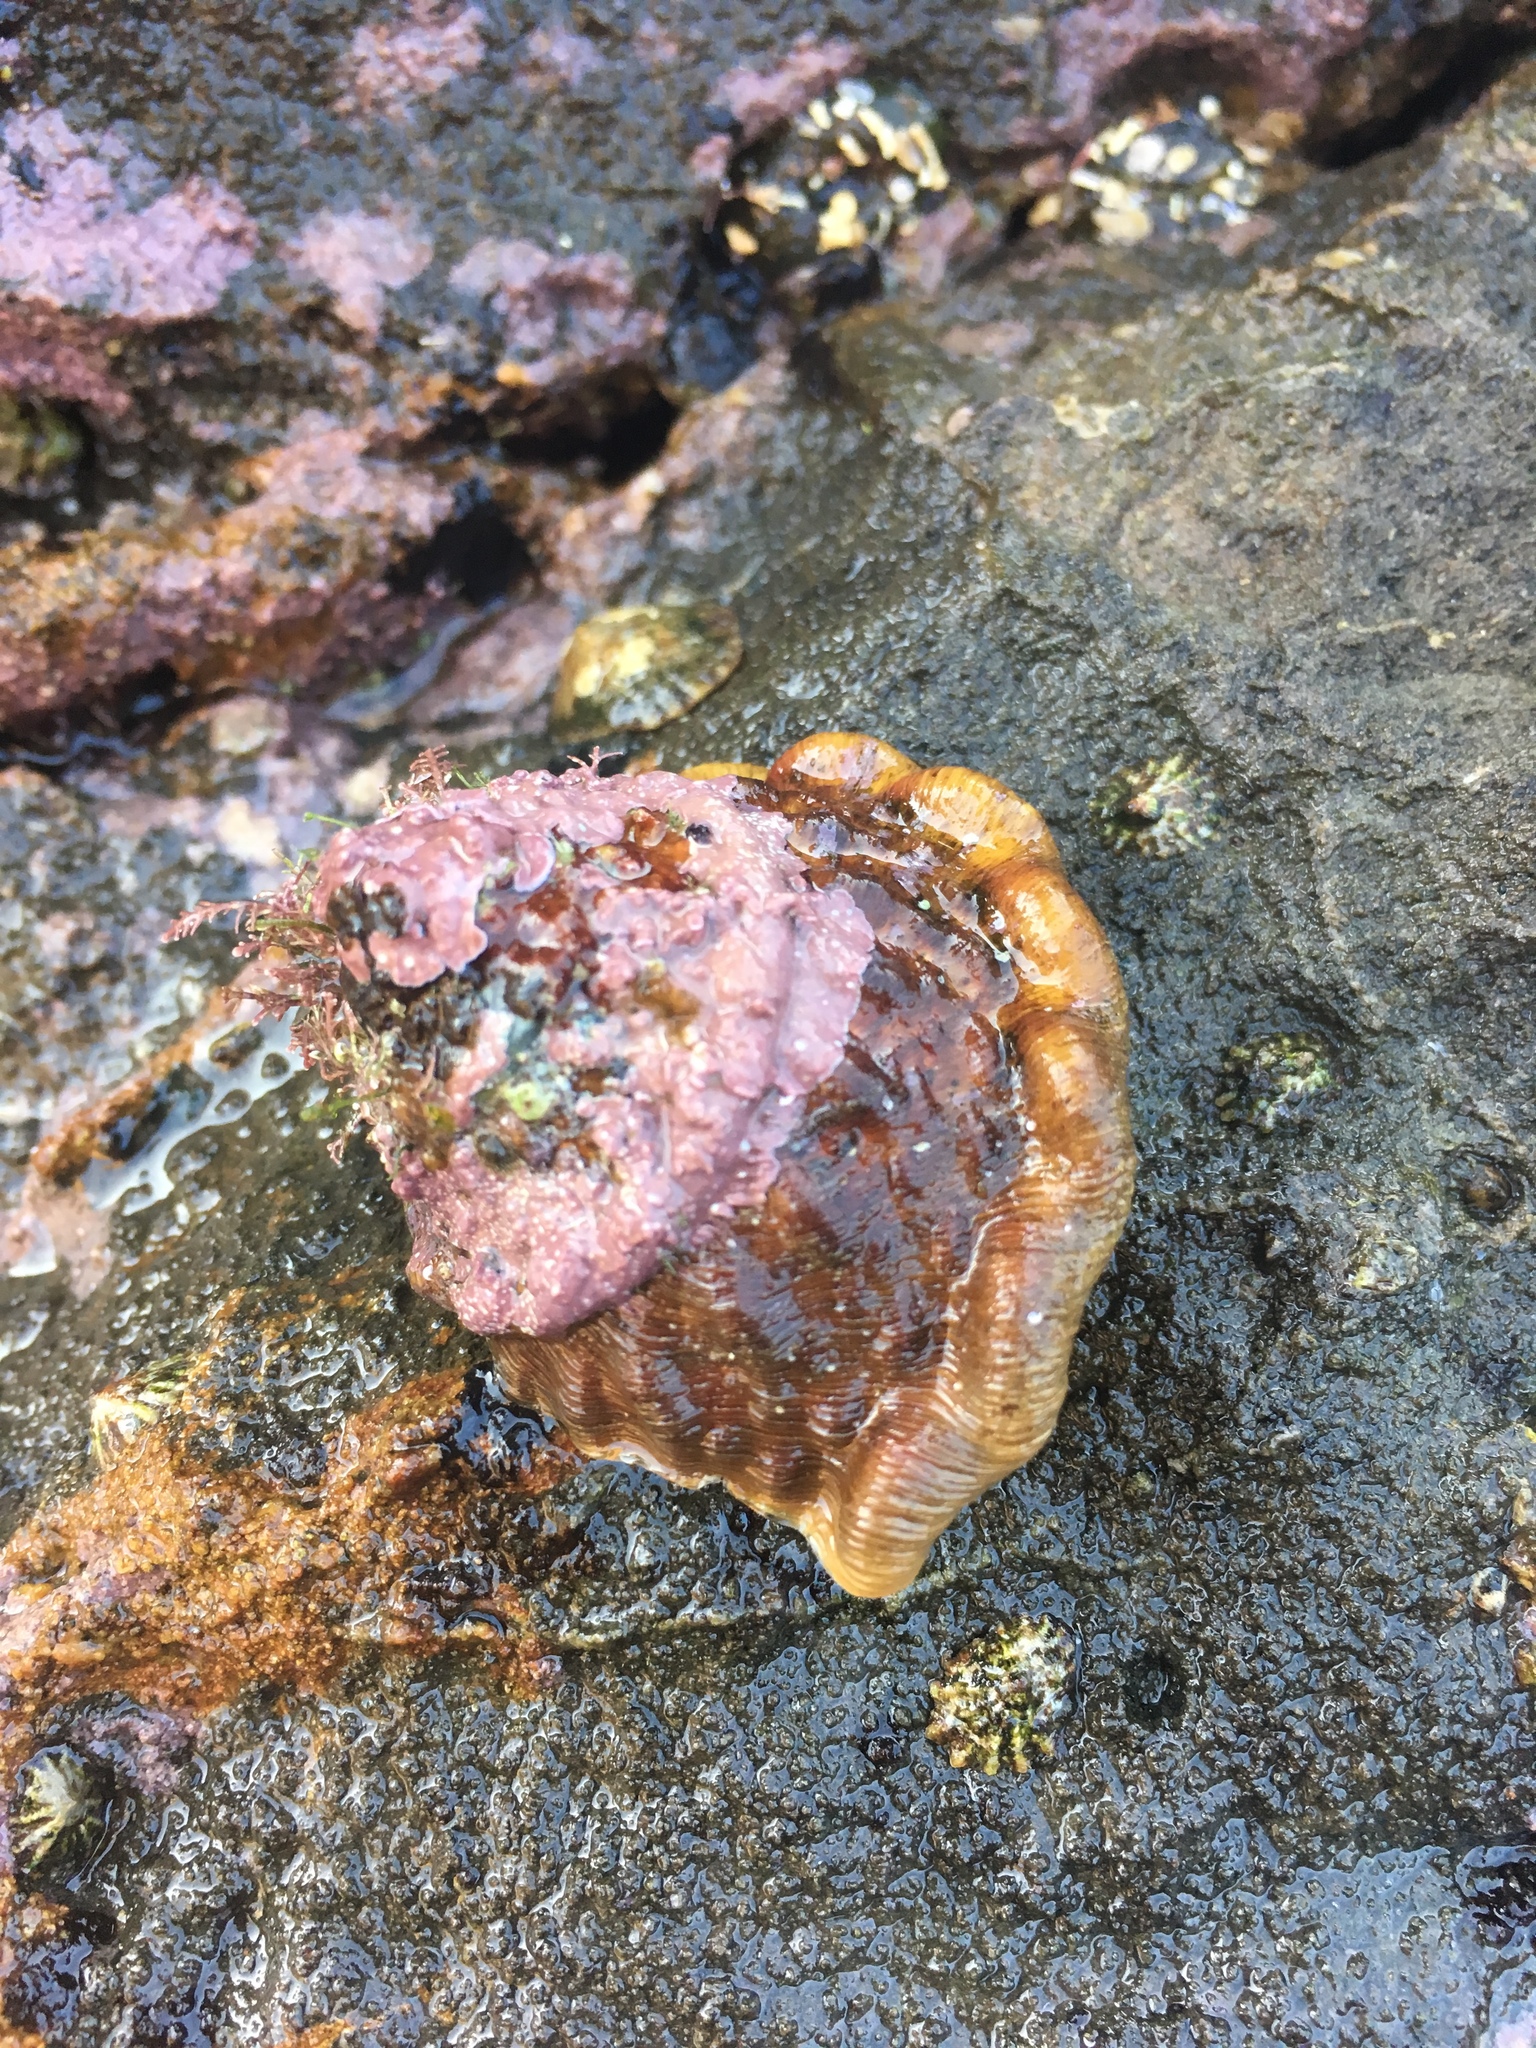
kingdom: Animalia
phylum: Mollusca
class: Gastropoda
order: Trochida
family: Turbinidae
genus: Megastraea
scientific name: Megastraea undosa
